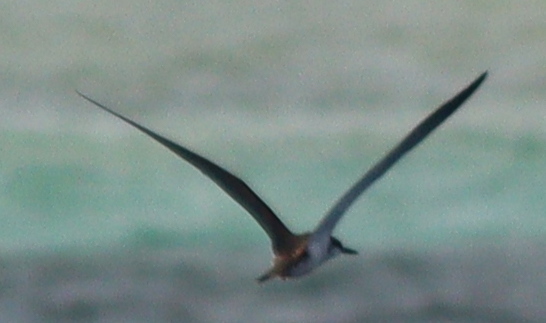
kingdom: Animalia
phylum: Chordata
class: Aves
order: Charadriiformes
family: Laridae
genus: Onychoprion
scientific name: Onychoprion anaethetus
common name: Bridled tern
